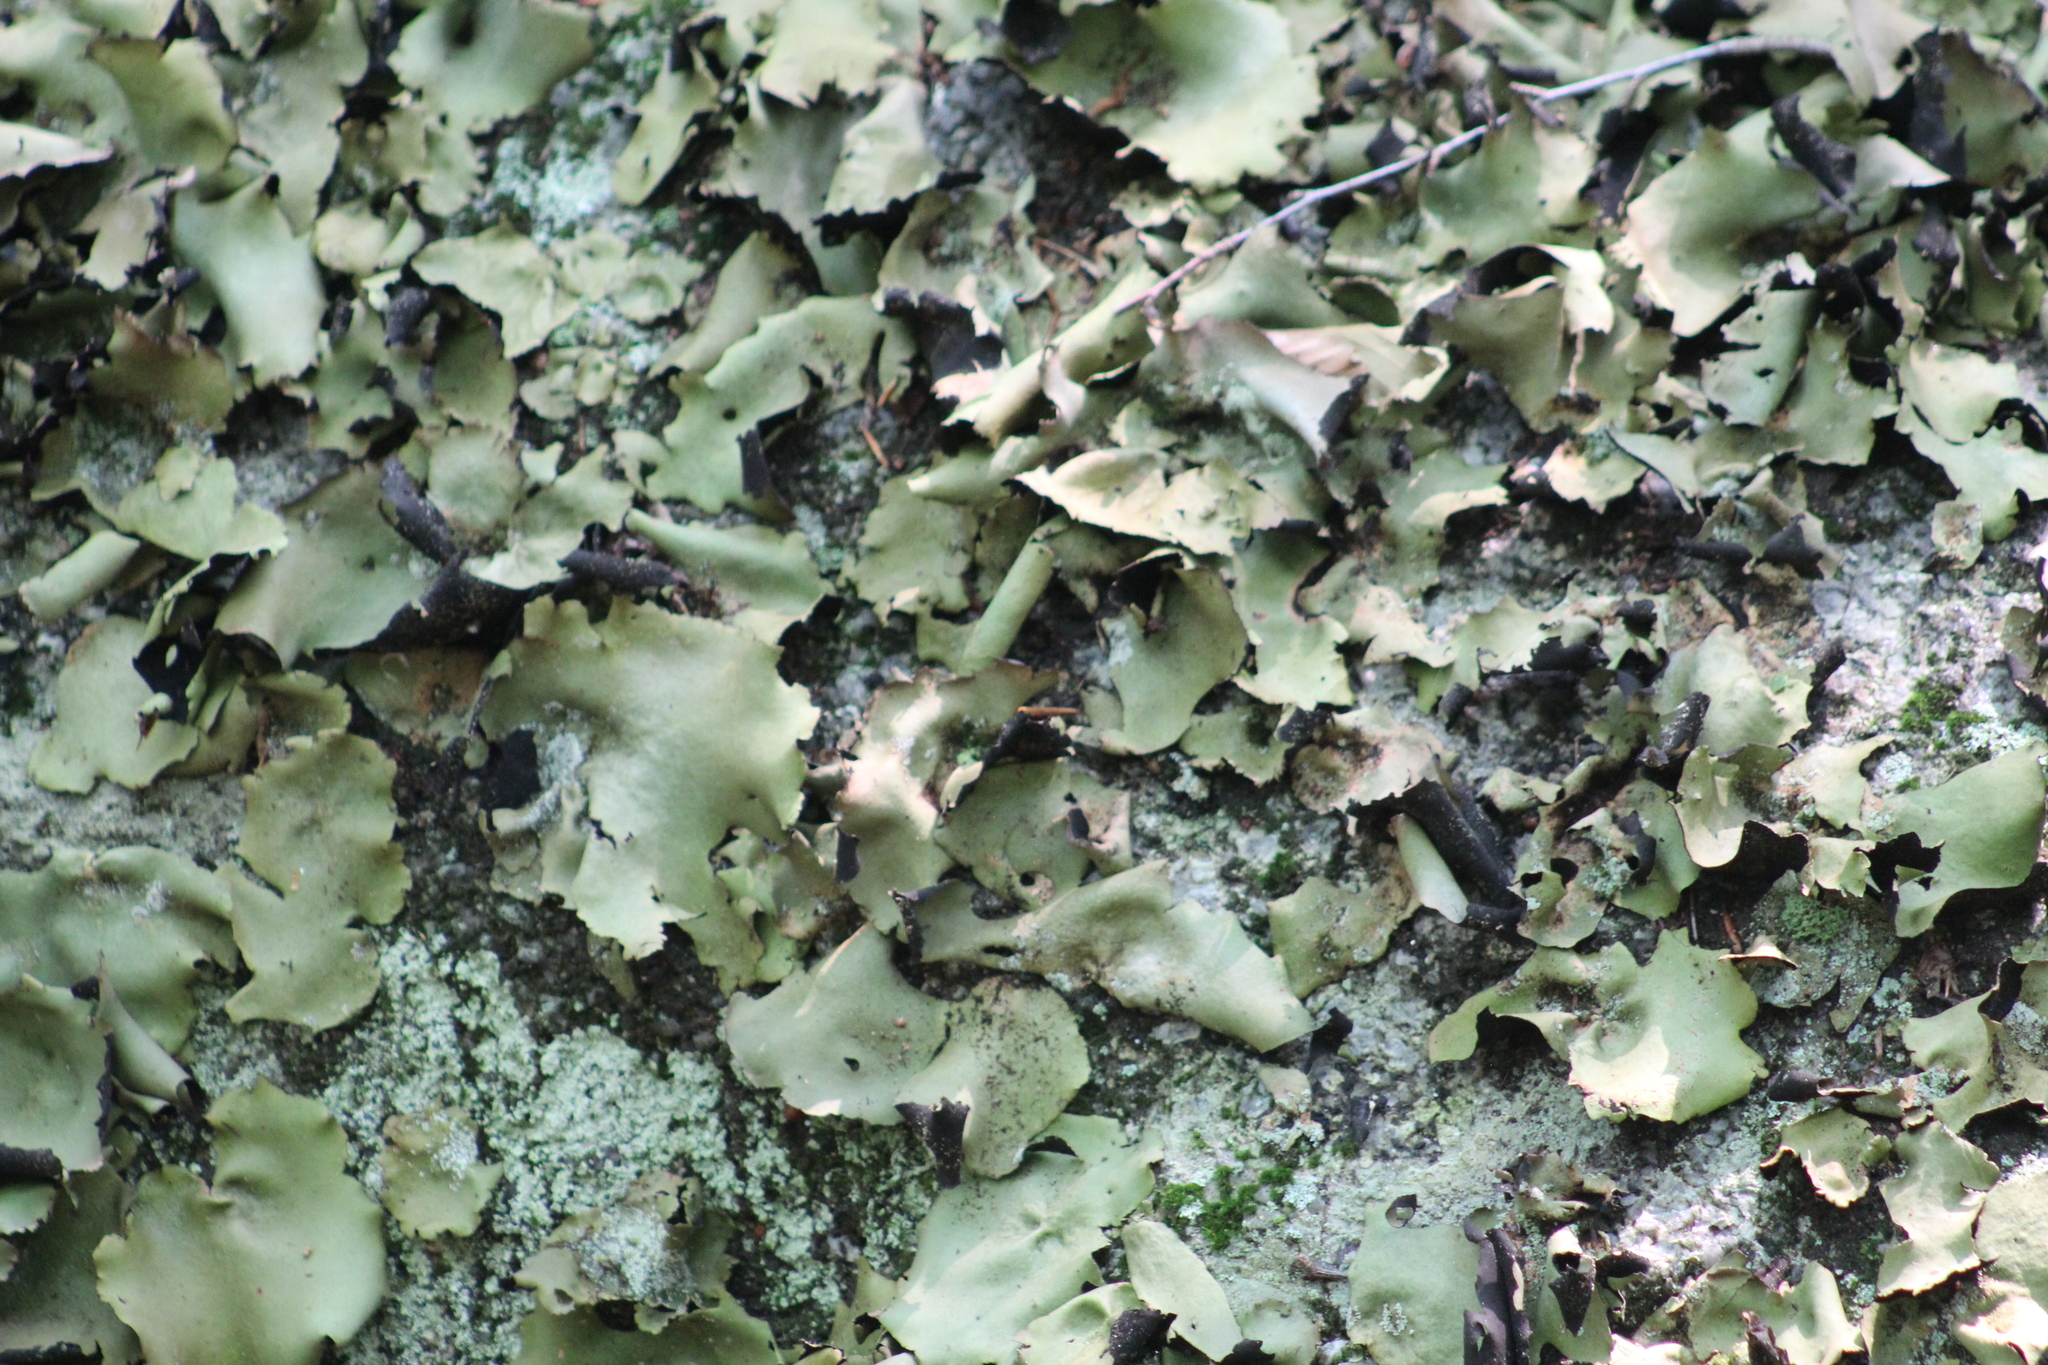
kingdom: Fungi
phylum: Ascomycota
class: Lecanoromycetes
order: Umbilicariales
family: Umbilicariaceae
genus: Umbilicaria
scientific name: Umbilicaria mammulata
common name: Smooth rock tripe
